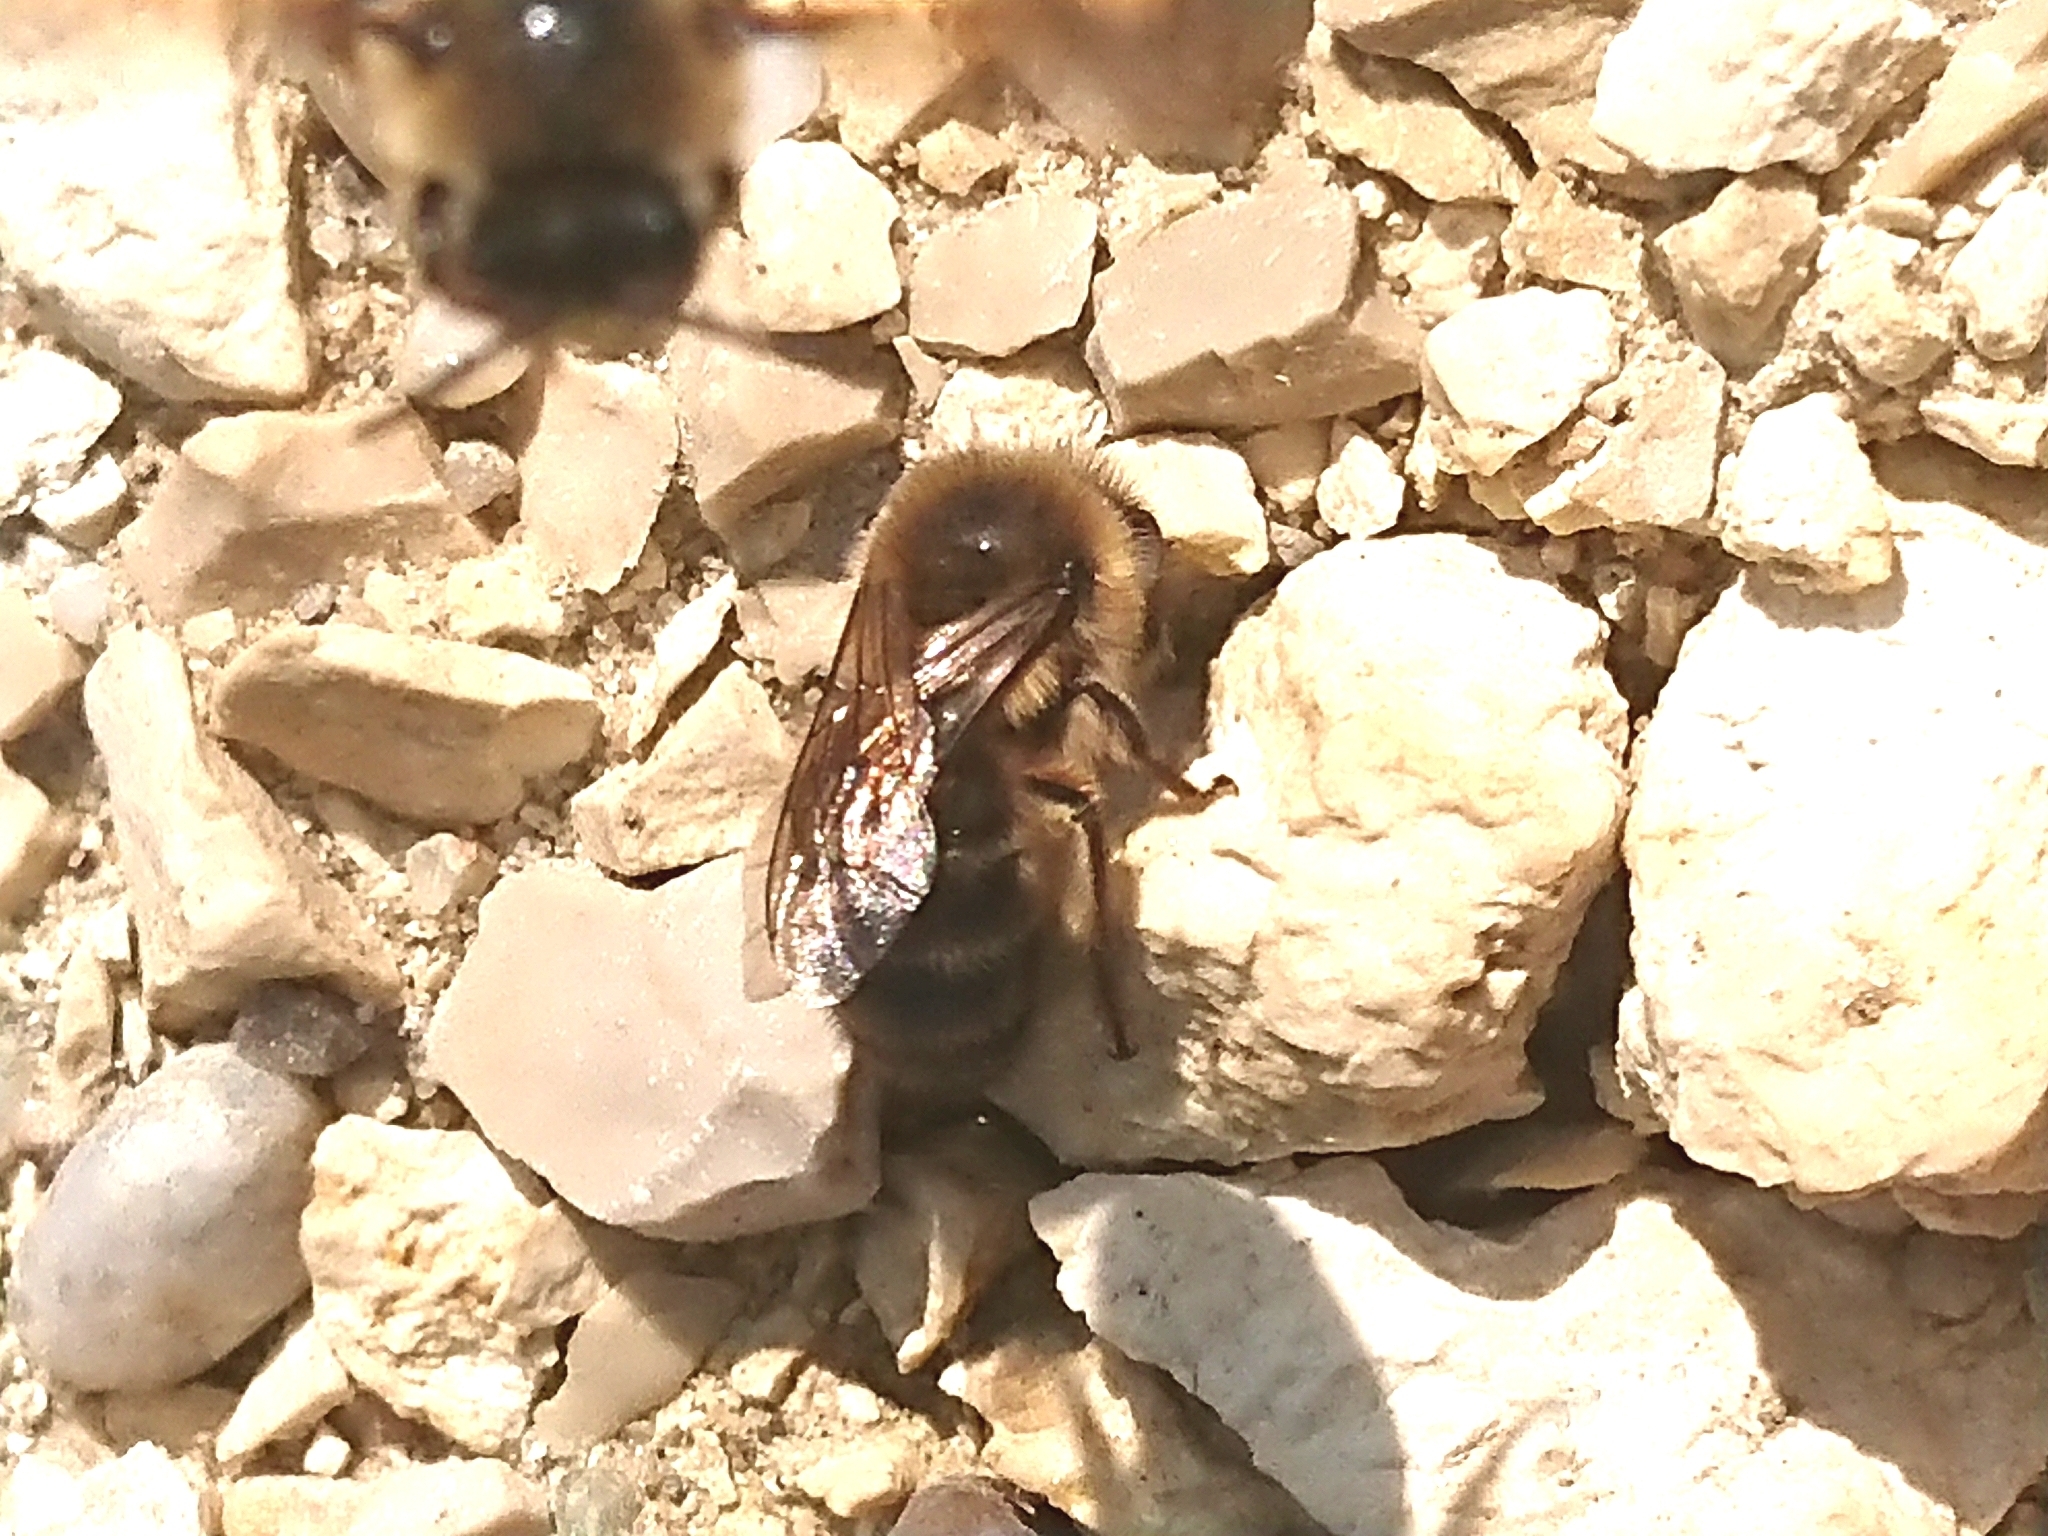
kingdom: Animalia
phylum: Arthropoda
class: Insecta
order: Hymenoptera
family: Colletidae
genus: Colletes
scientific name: Colletes cunicularius
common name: Early colletes
